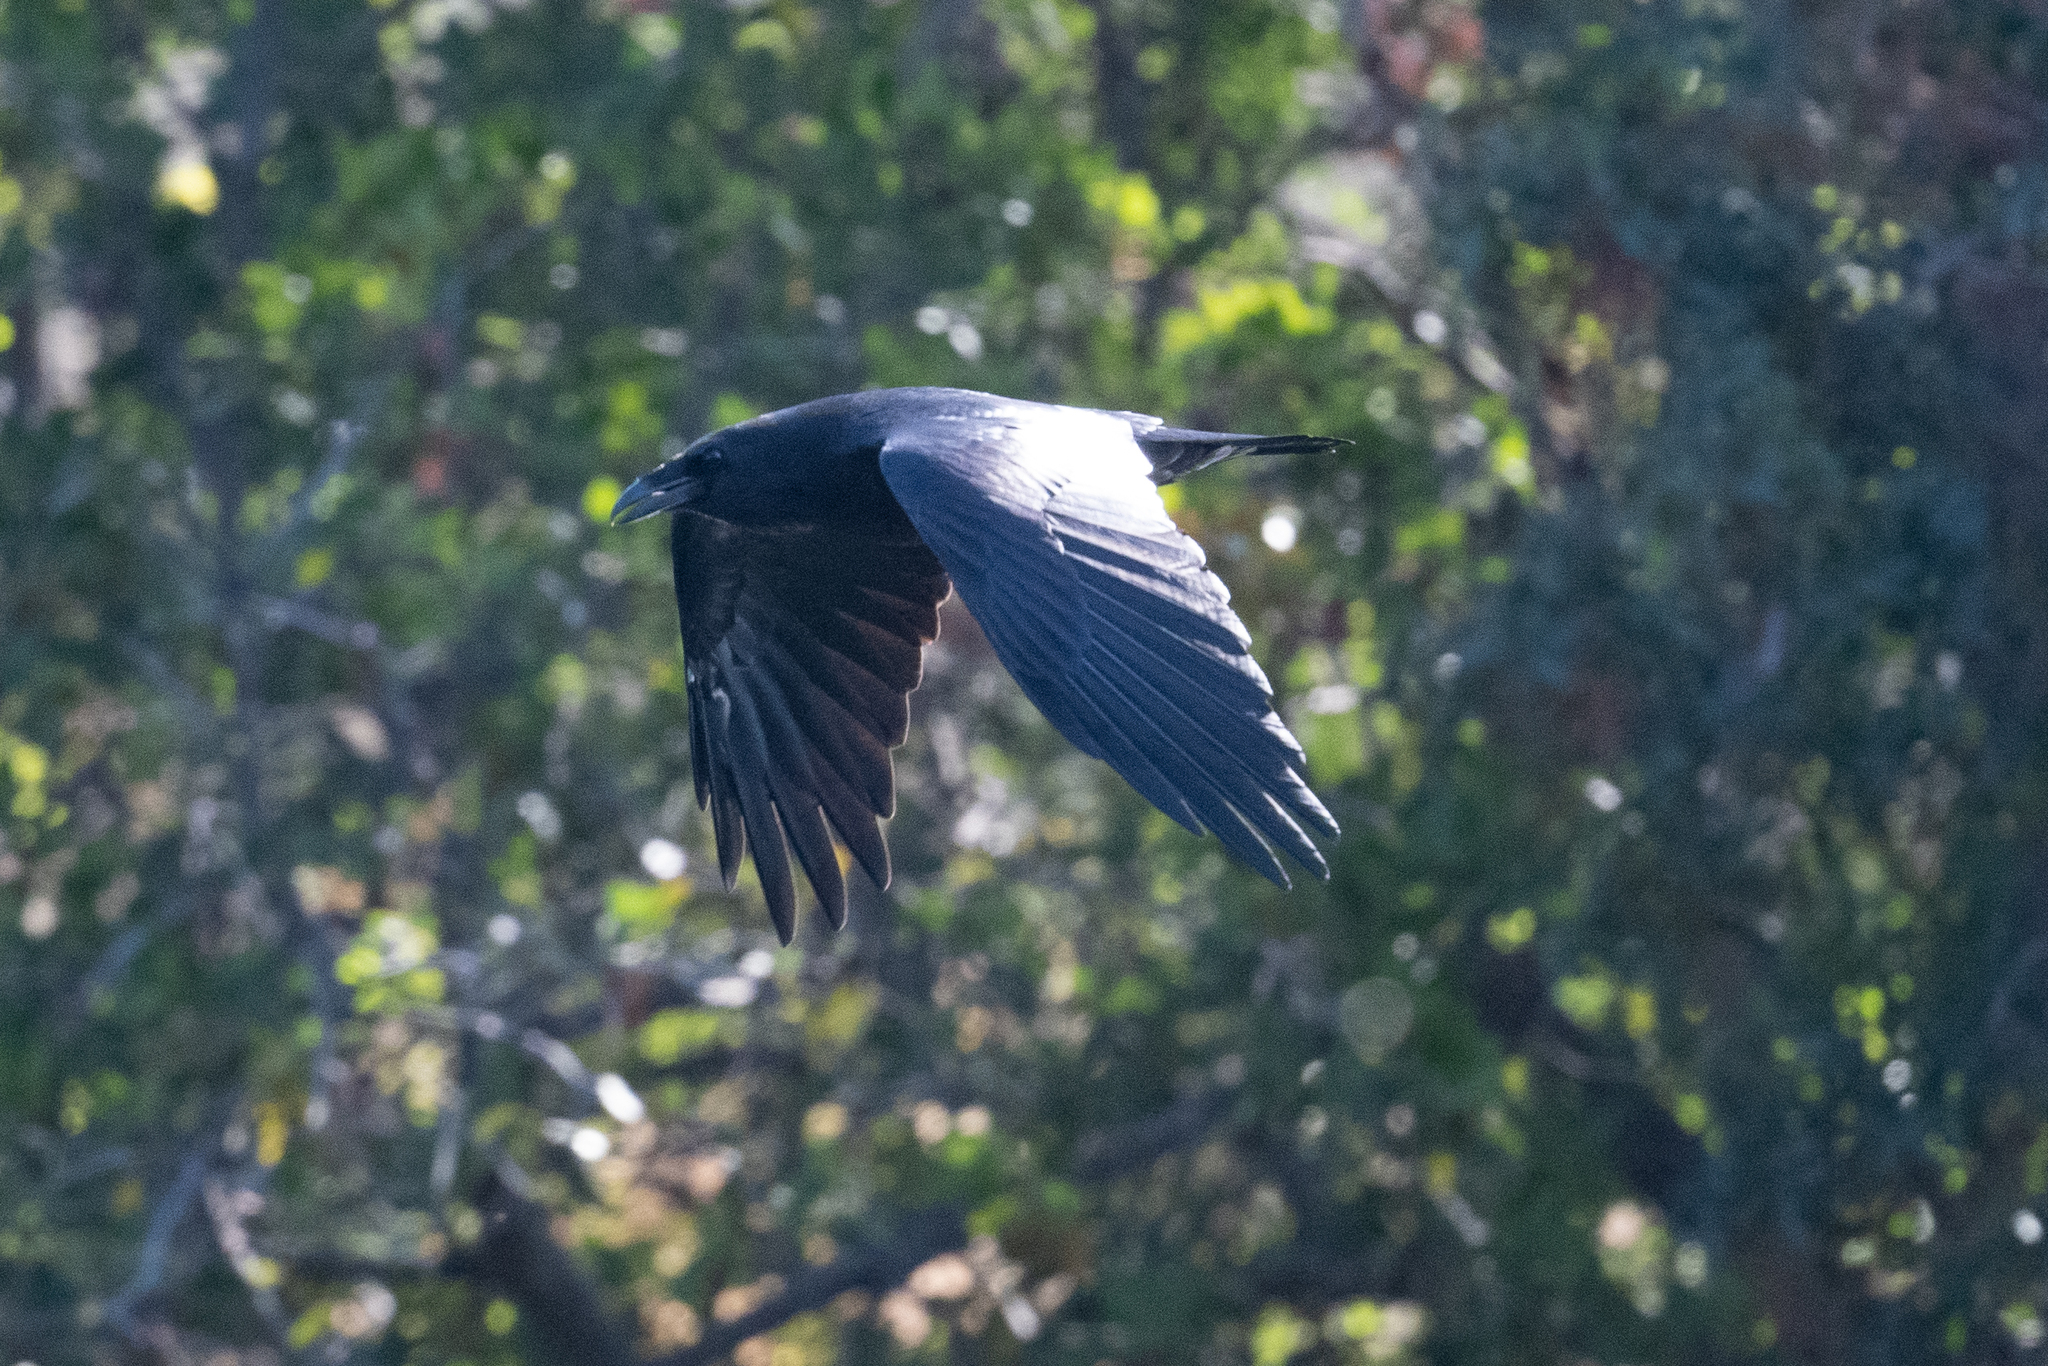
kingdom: Animalia
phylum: Chordata
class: Aves
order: Passeriformes
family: Corvidae
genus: Corvus
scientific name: Corvus corax
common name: Common raven
